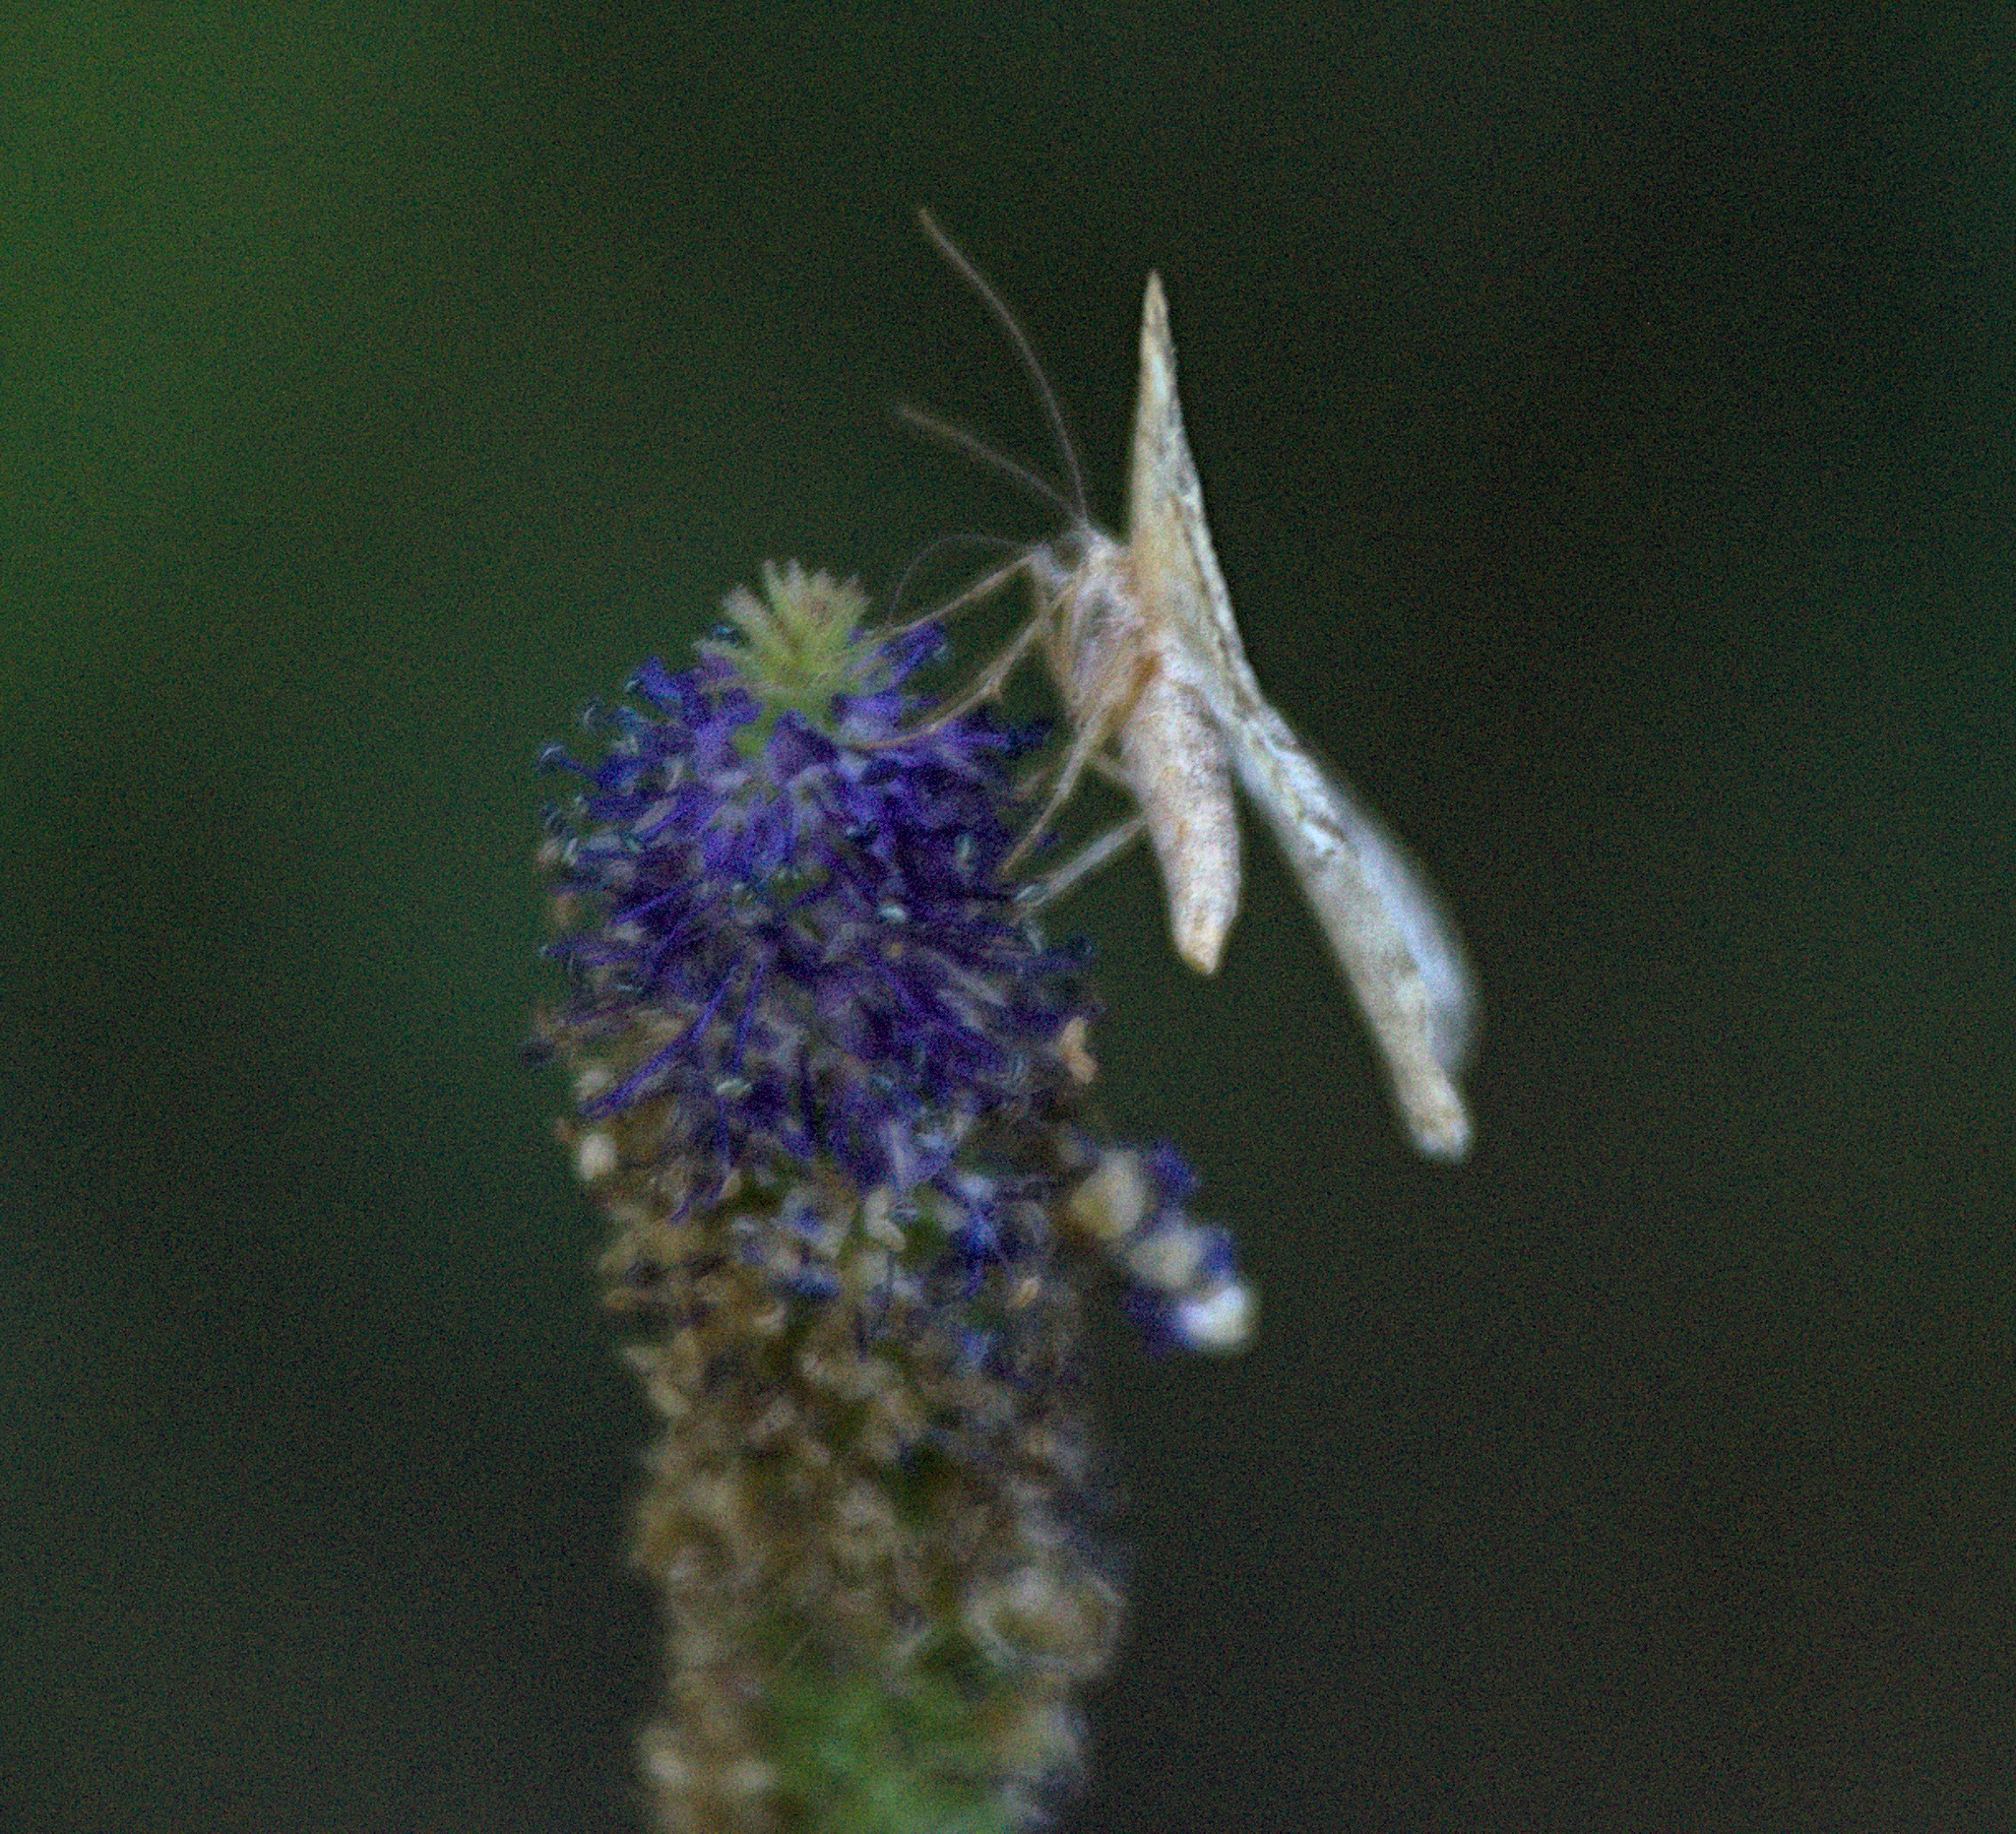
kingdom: Animalia
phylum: Arthropoda
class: Insecta
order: Lepidoptera
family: Geometridae
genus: Alcis
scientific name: Alcis deversata
